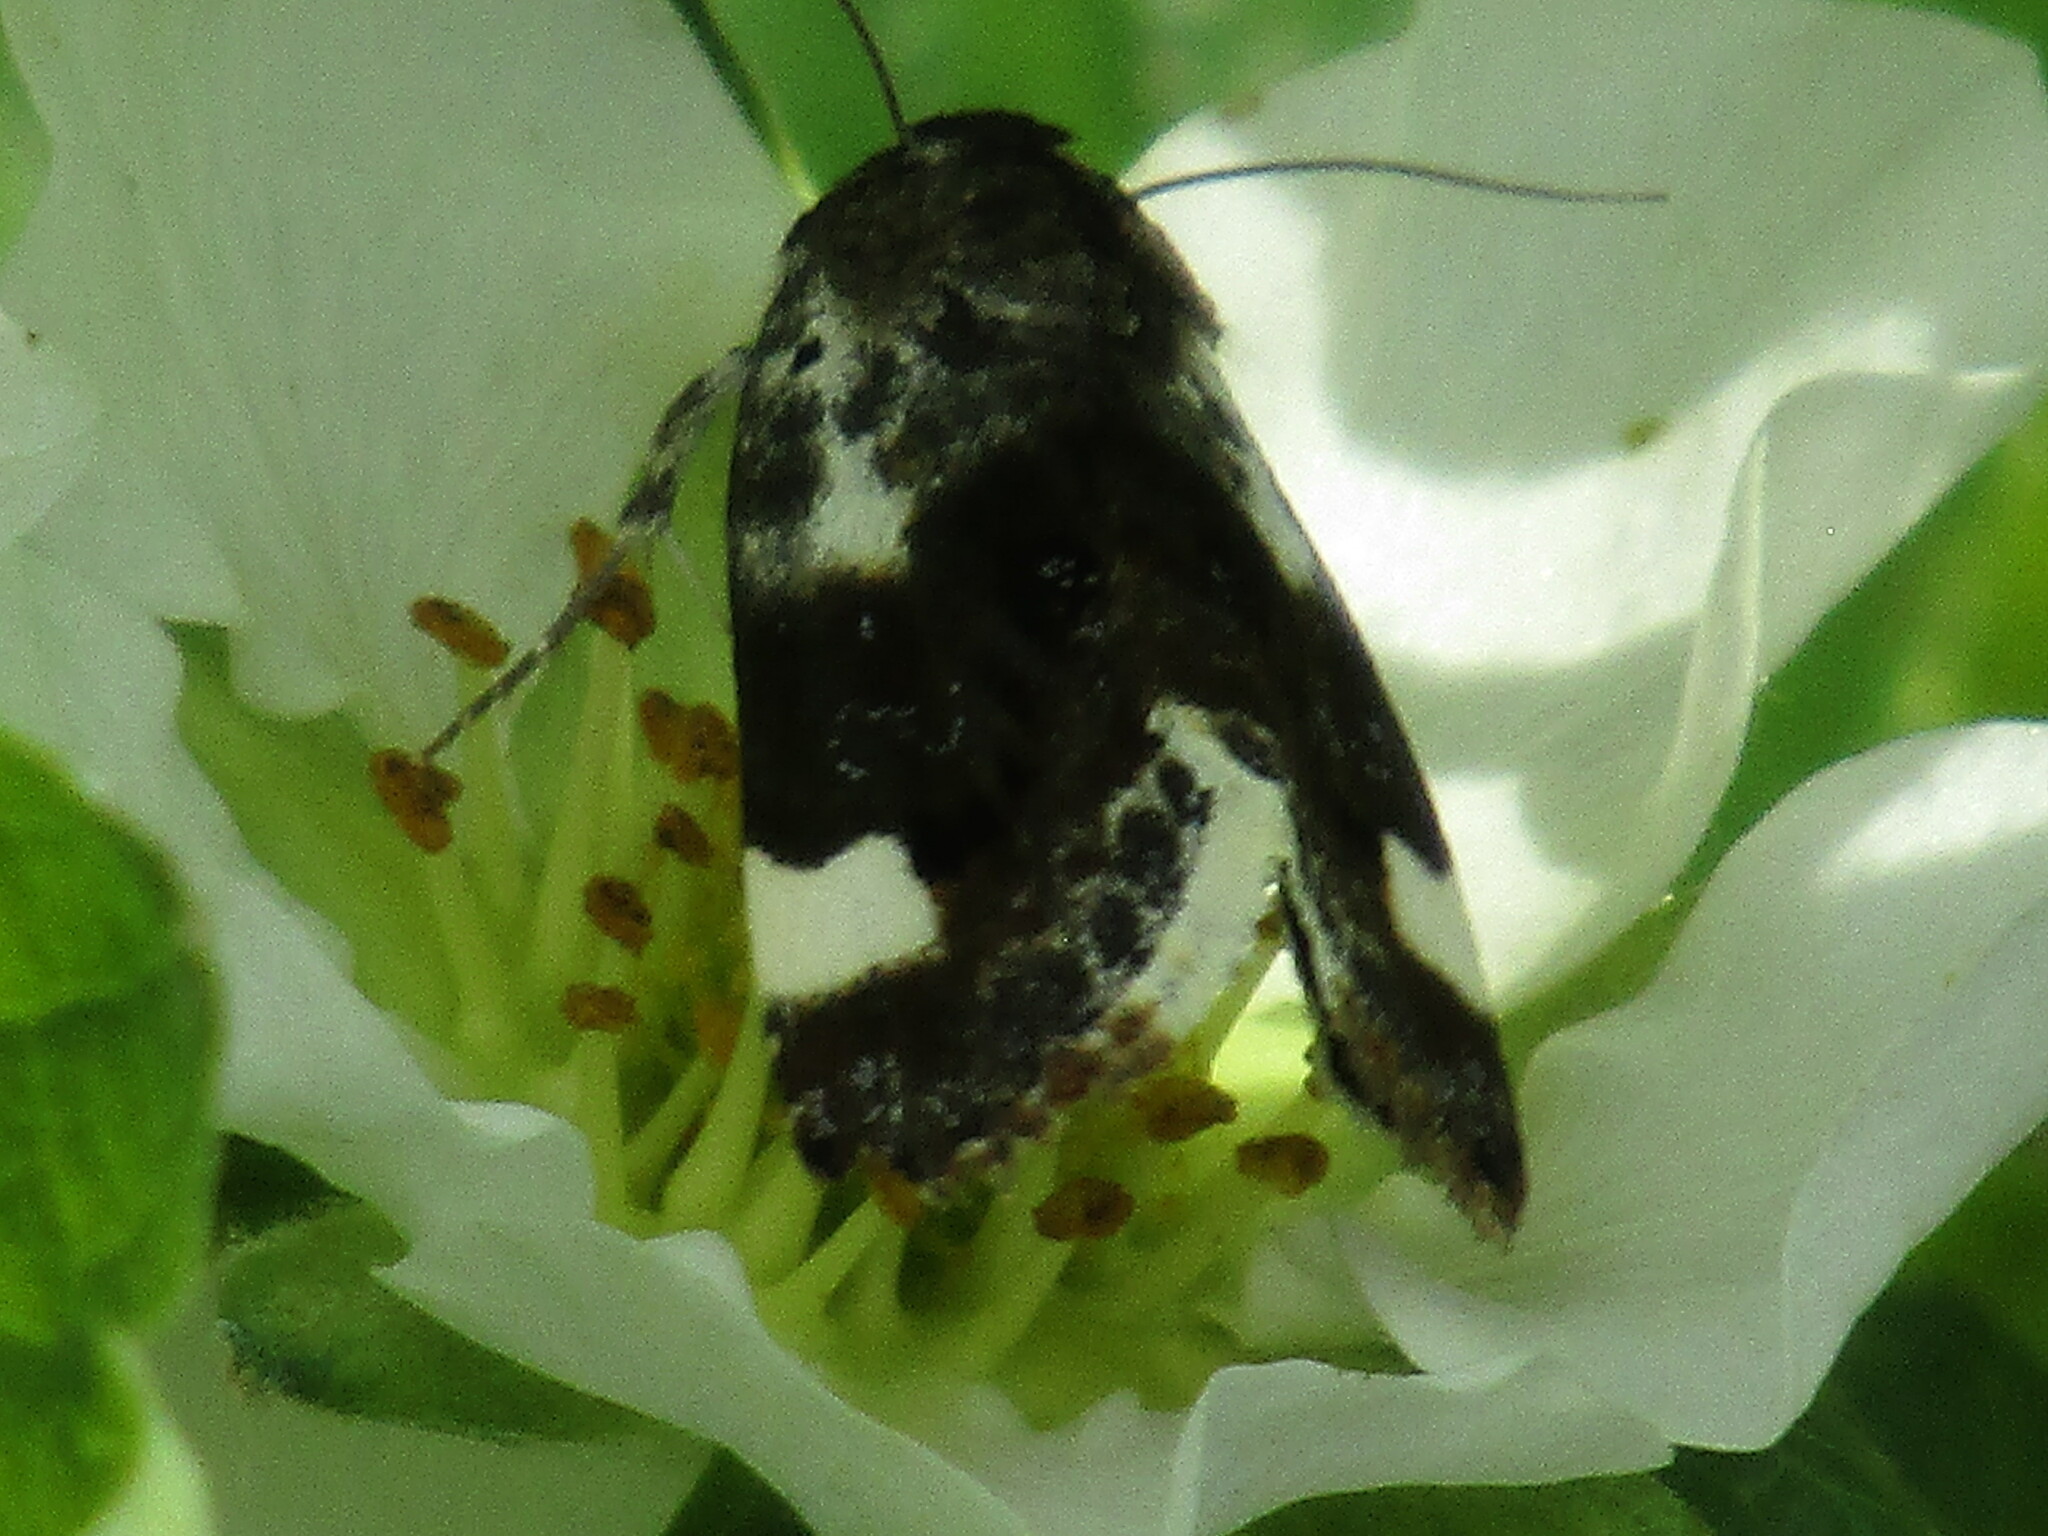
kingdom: Animalia
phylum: Arthropoda
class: Insecta
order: Lepidoptera
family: Noctuidae
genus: Acontia
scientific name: Acontia lucida
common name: Pale shoulder
